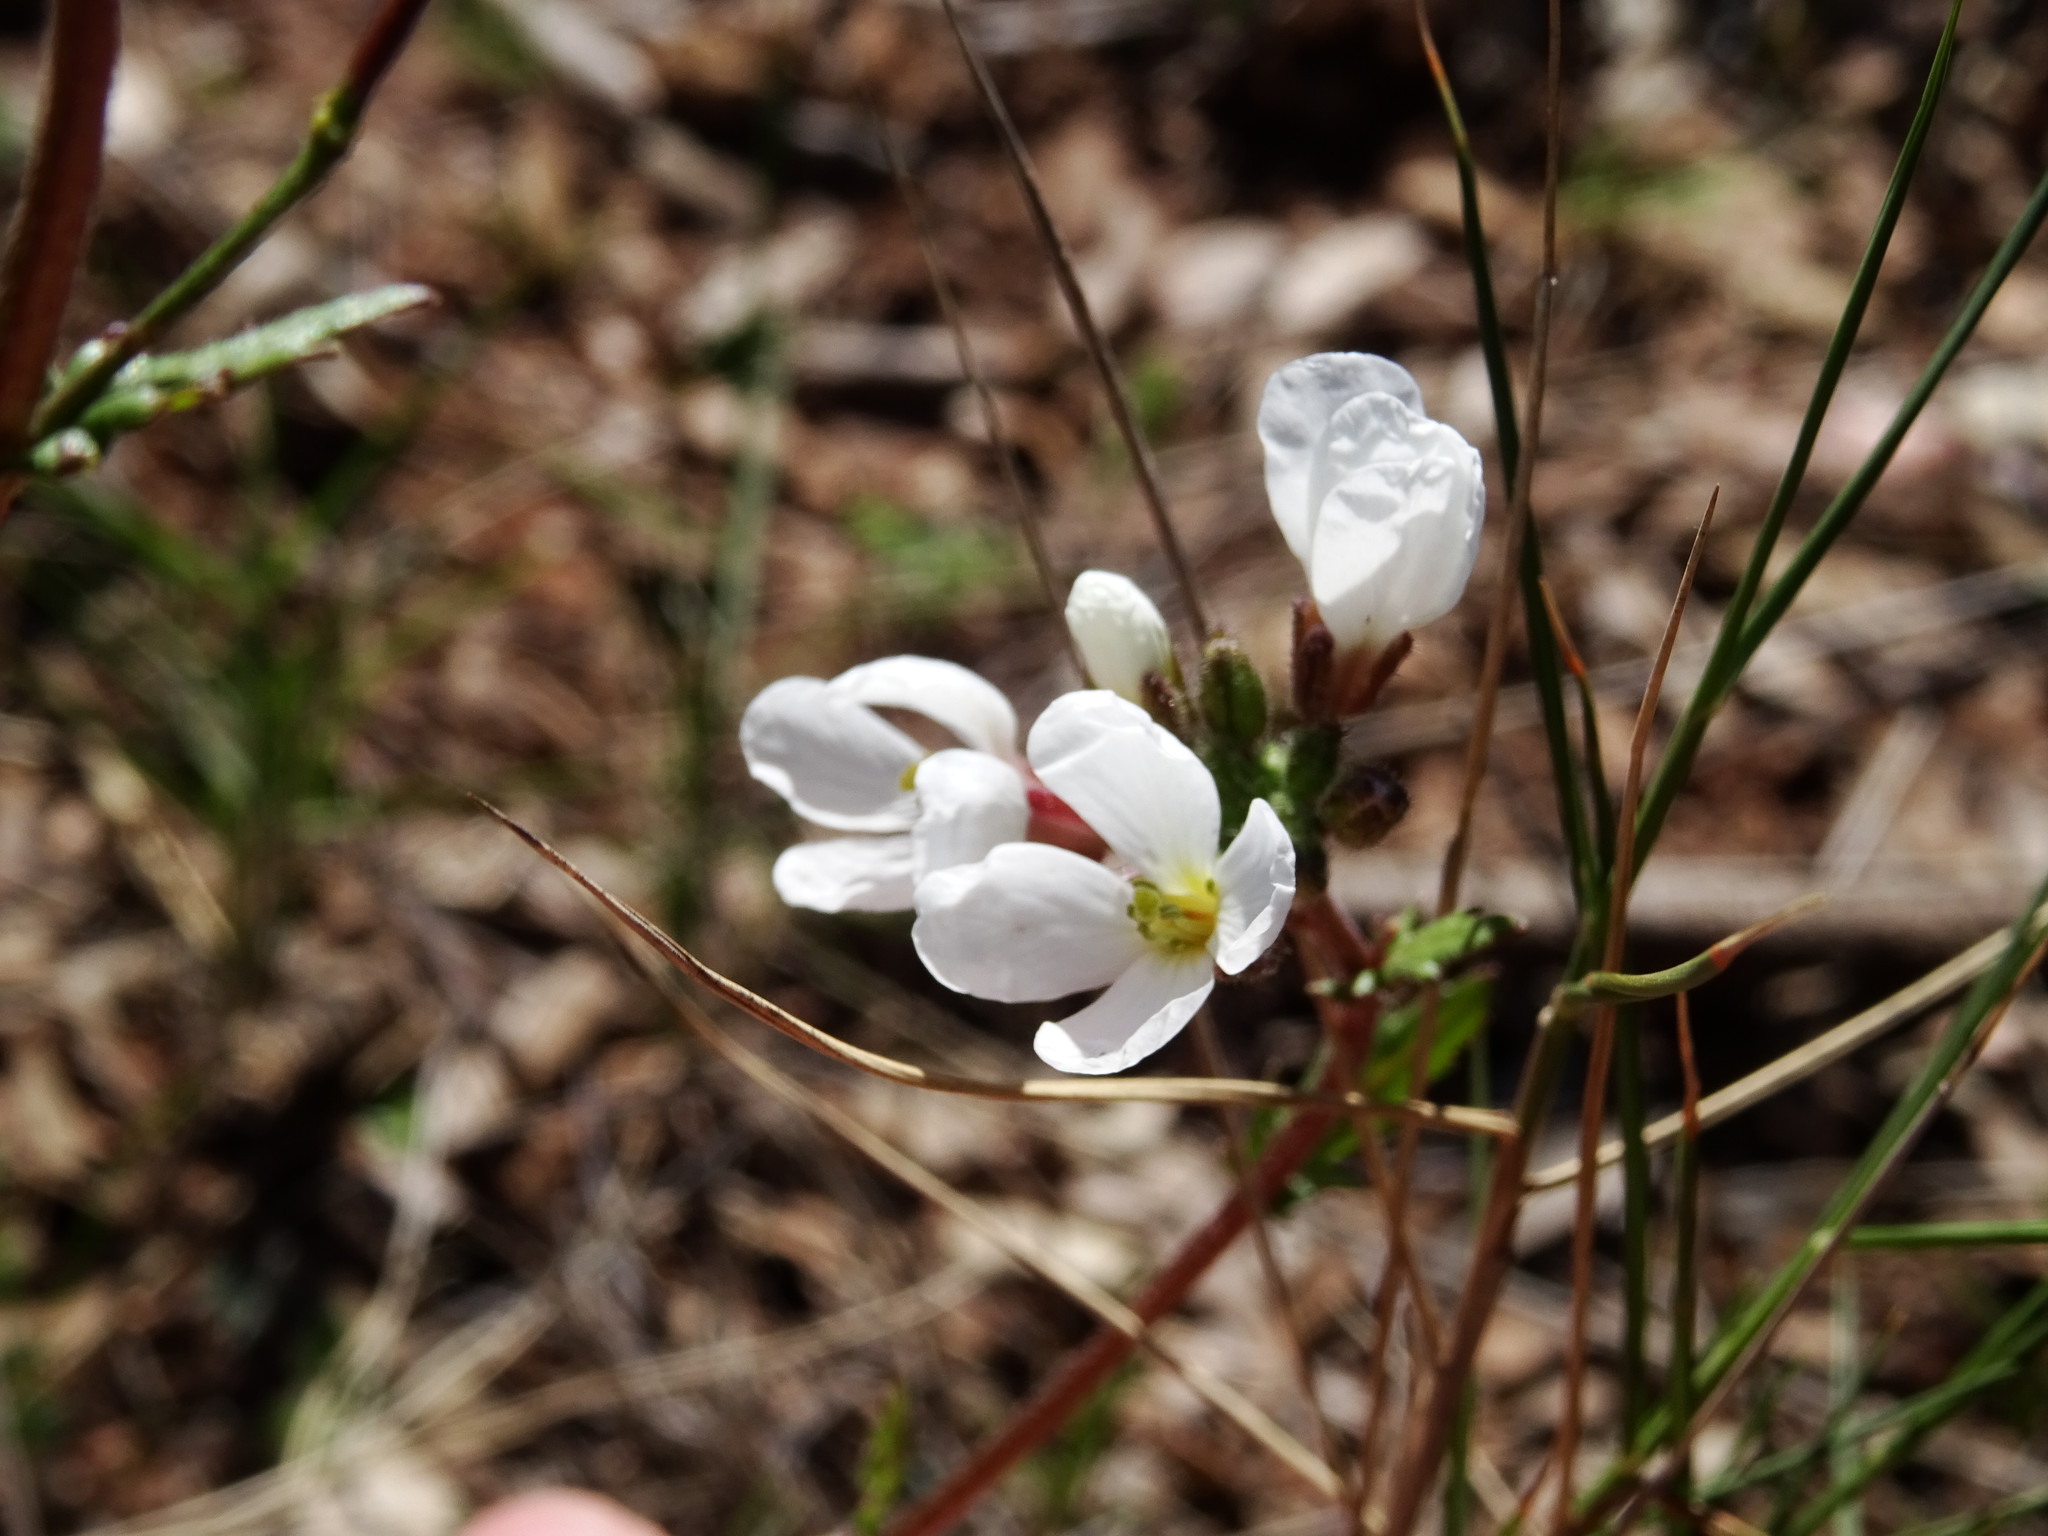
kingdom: Plantae
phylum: Tracheophyta
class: Magnoliopsida
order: Brassicales
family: Brassicaceae
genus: Diplotaxis
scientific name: Diplotaxis erucoides
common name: White rocket
